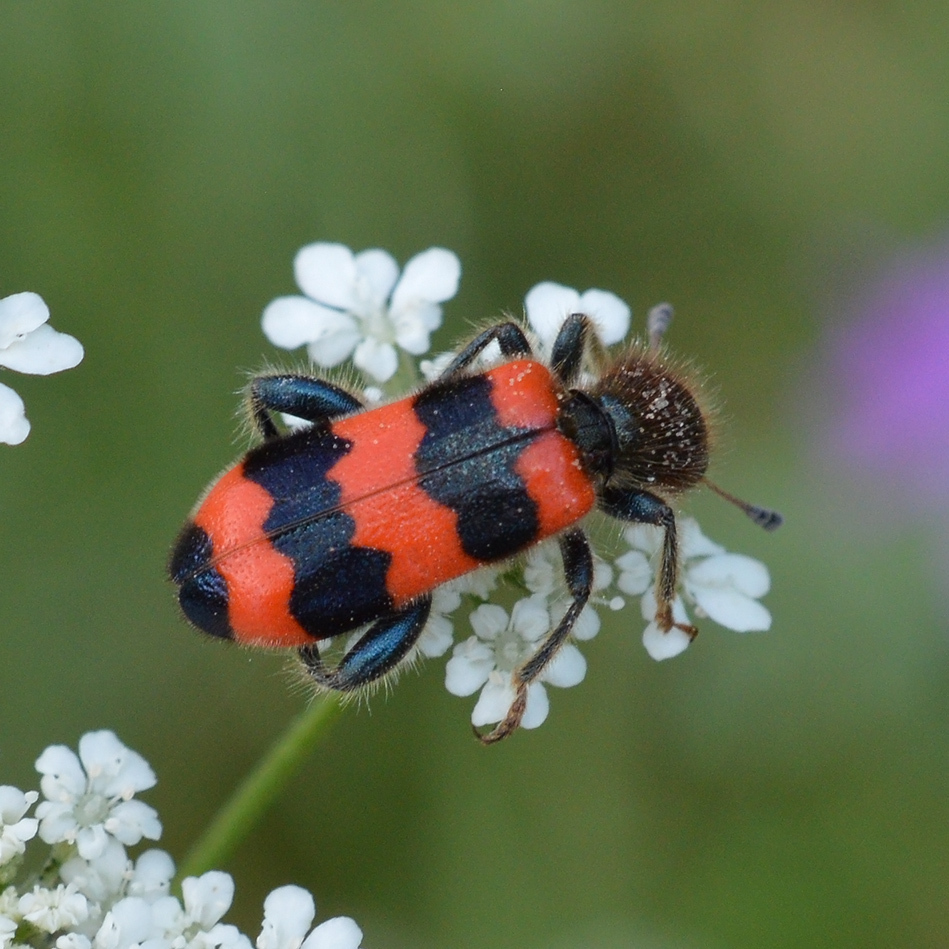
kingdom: Animalia
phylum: Arthropoda
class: Insecta
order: Coleoptera
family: Cleridae
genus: Trichodes
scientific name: Trichodes apiarius
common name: Bee-eating beetle
